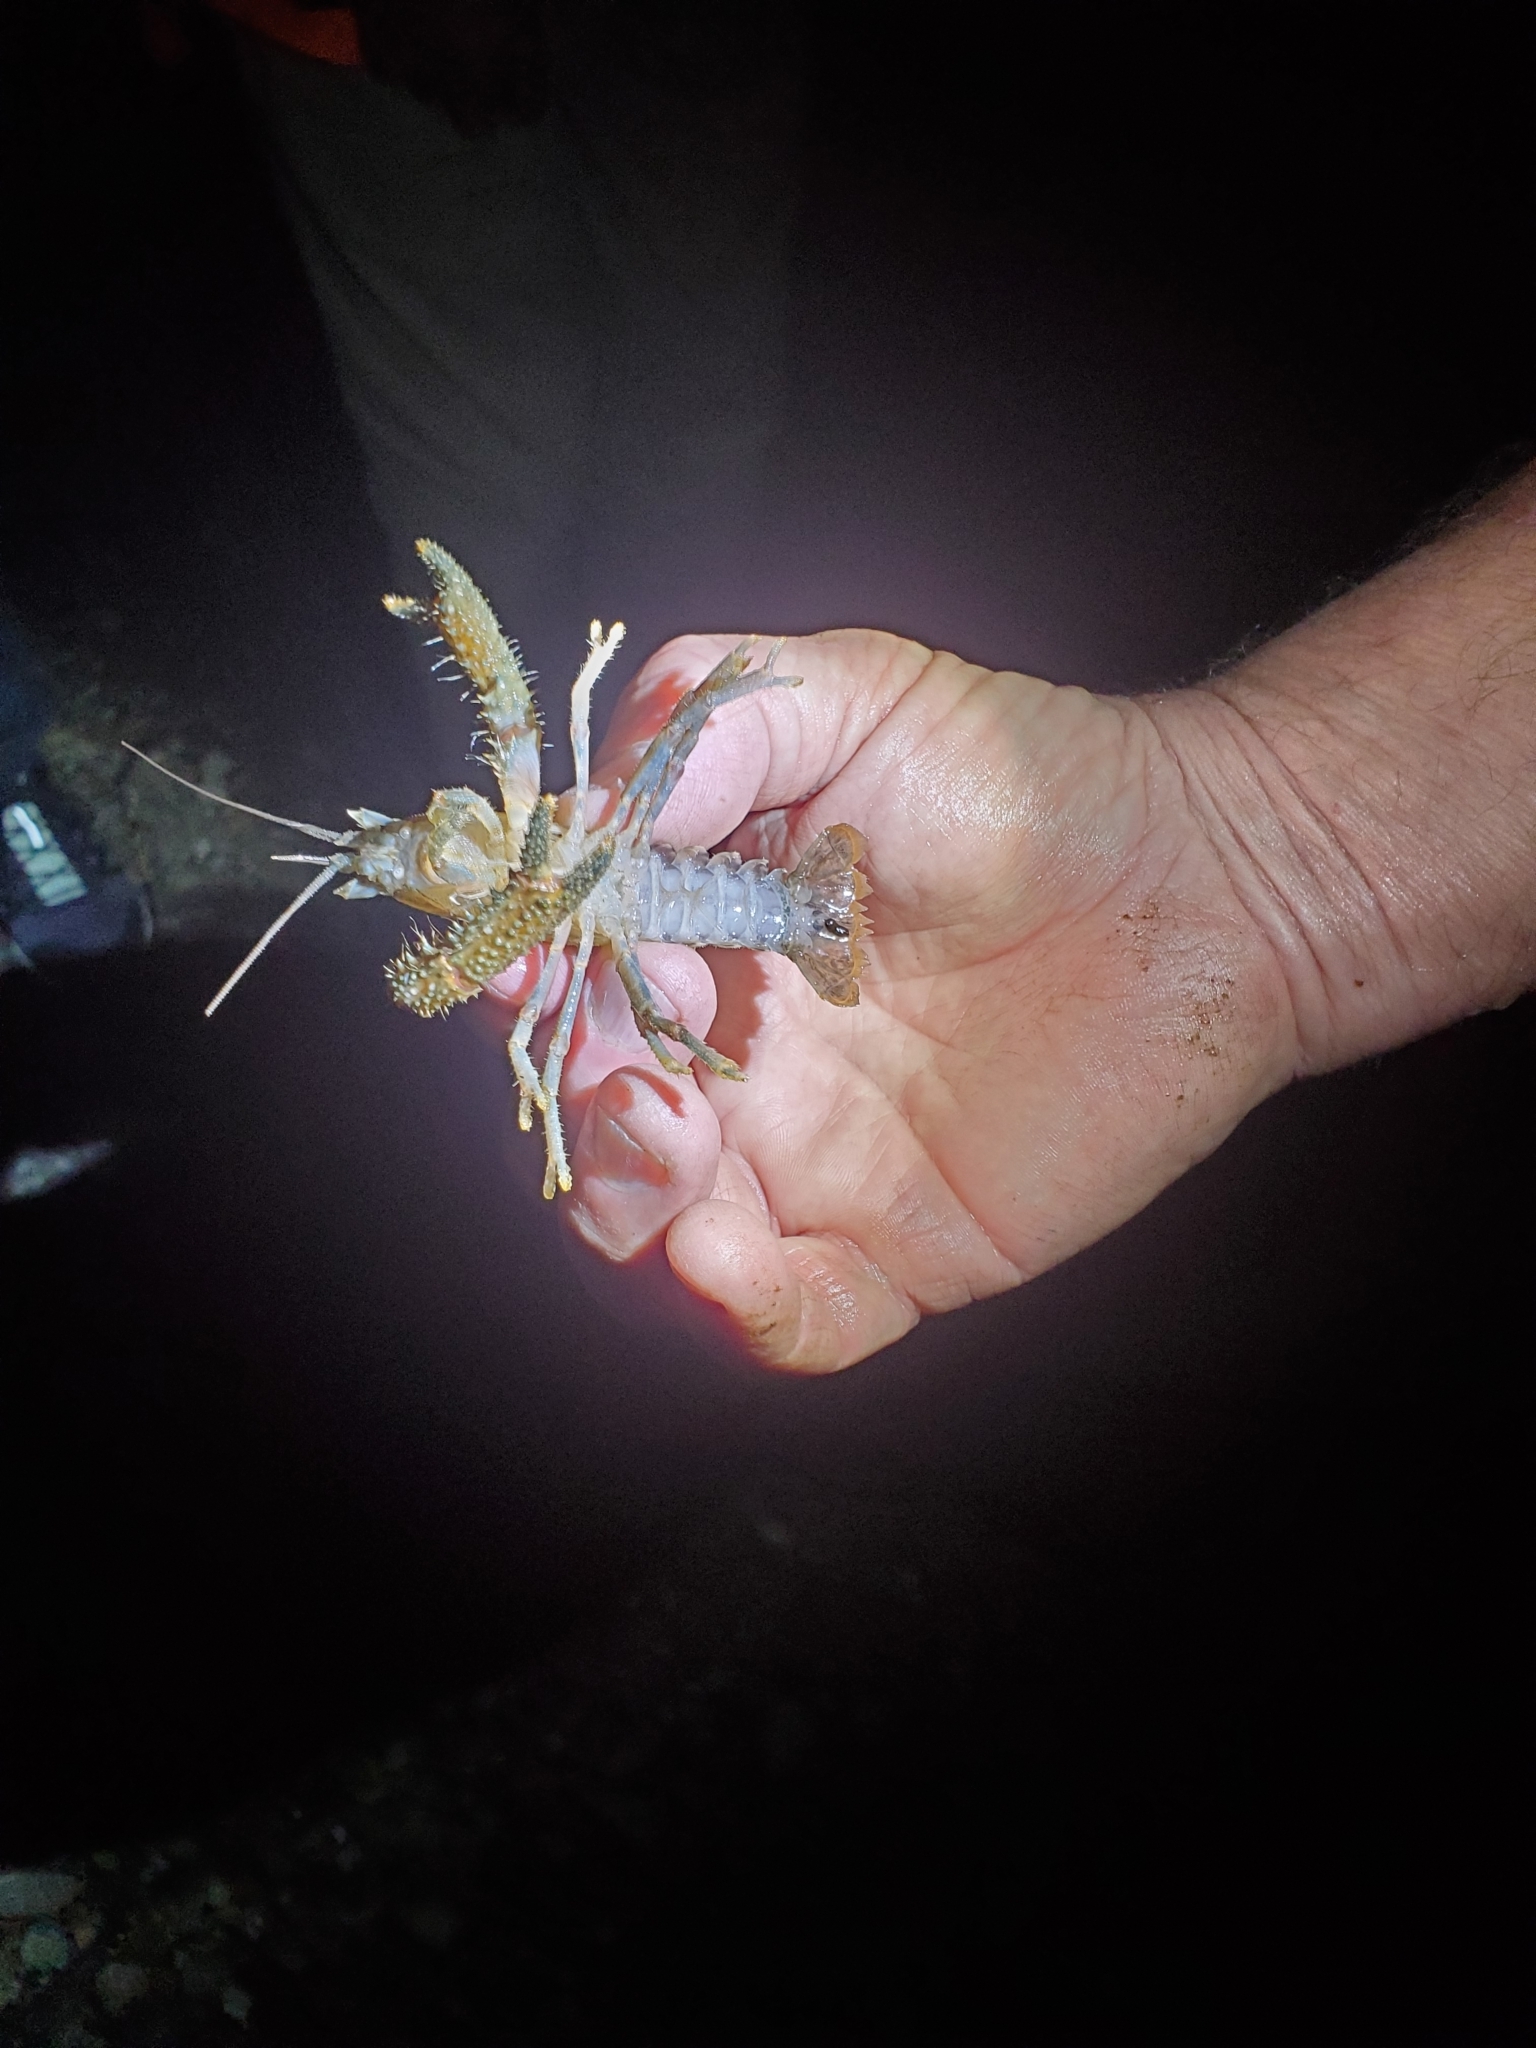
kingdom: Animalia
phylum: Arthropoda
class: Malacostraca
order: Decapoda
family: Parastacidae
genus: Paranephrops
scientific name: Paranephrops planifrons
